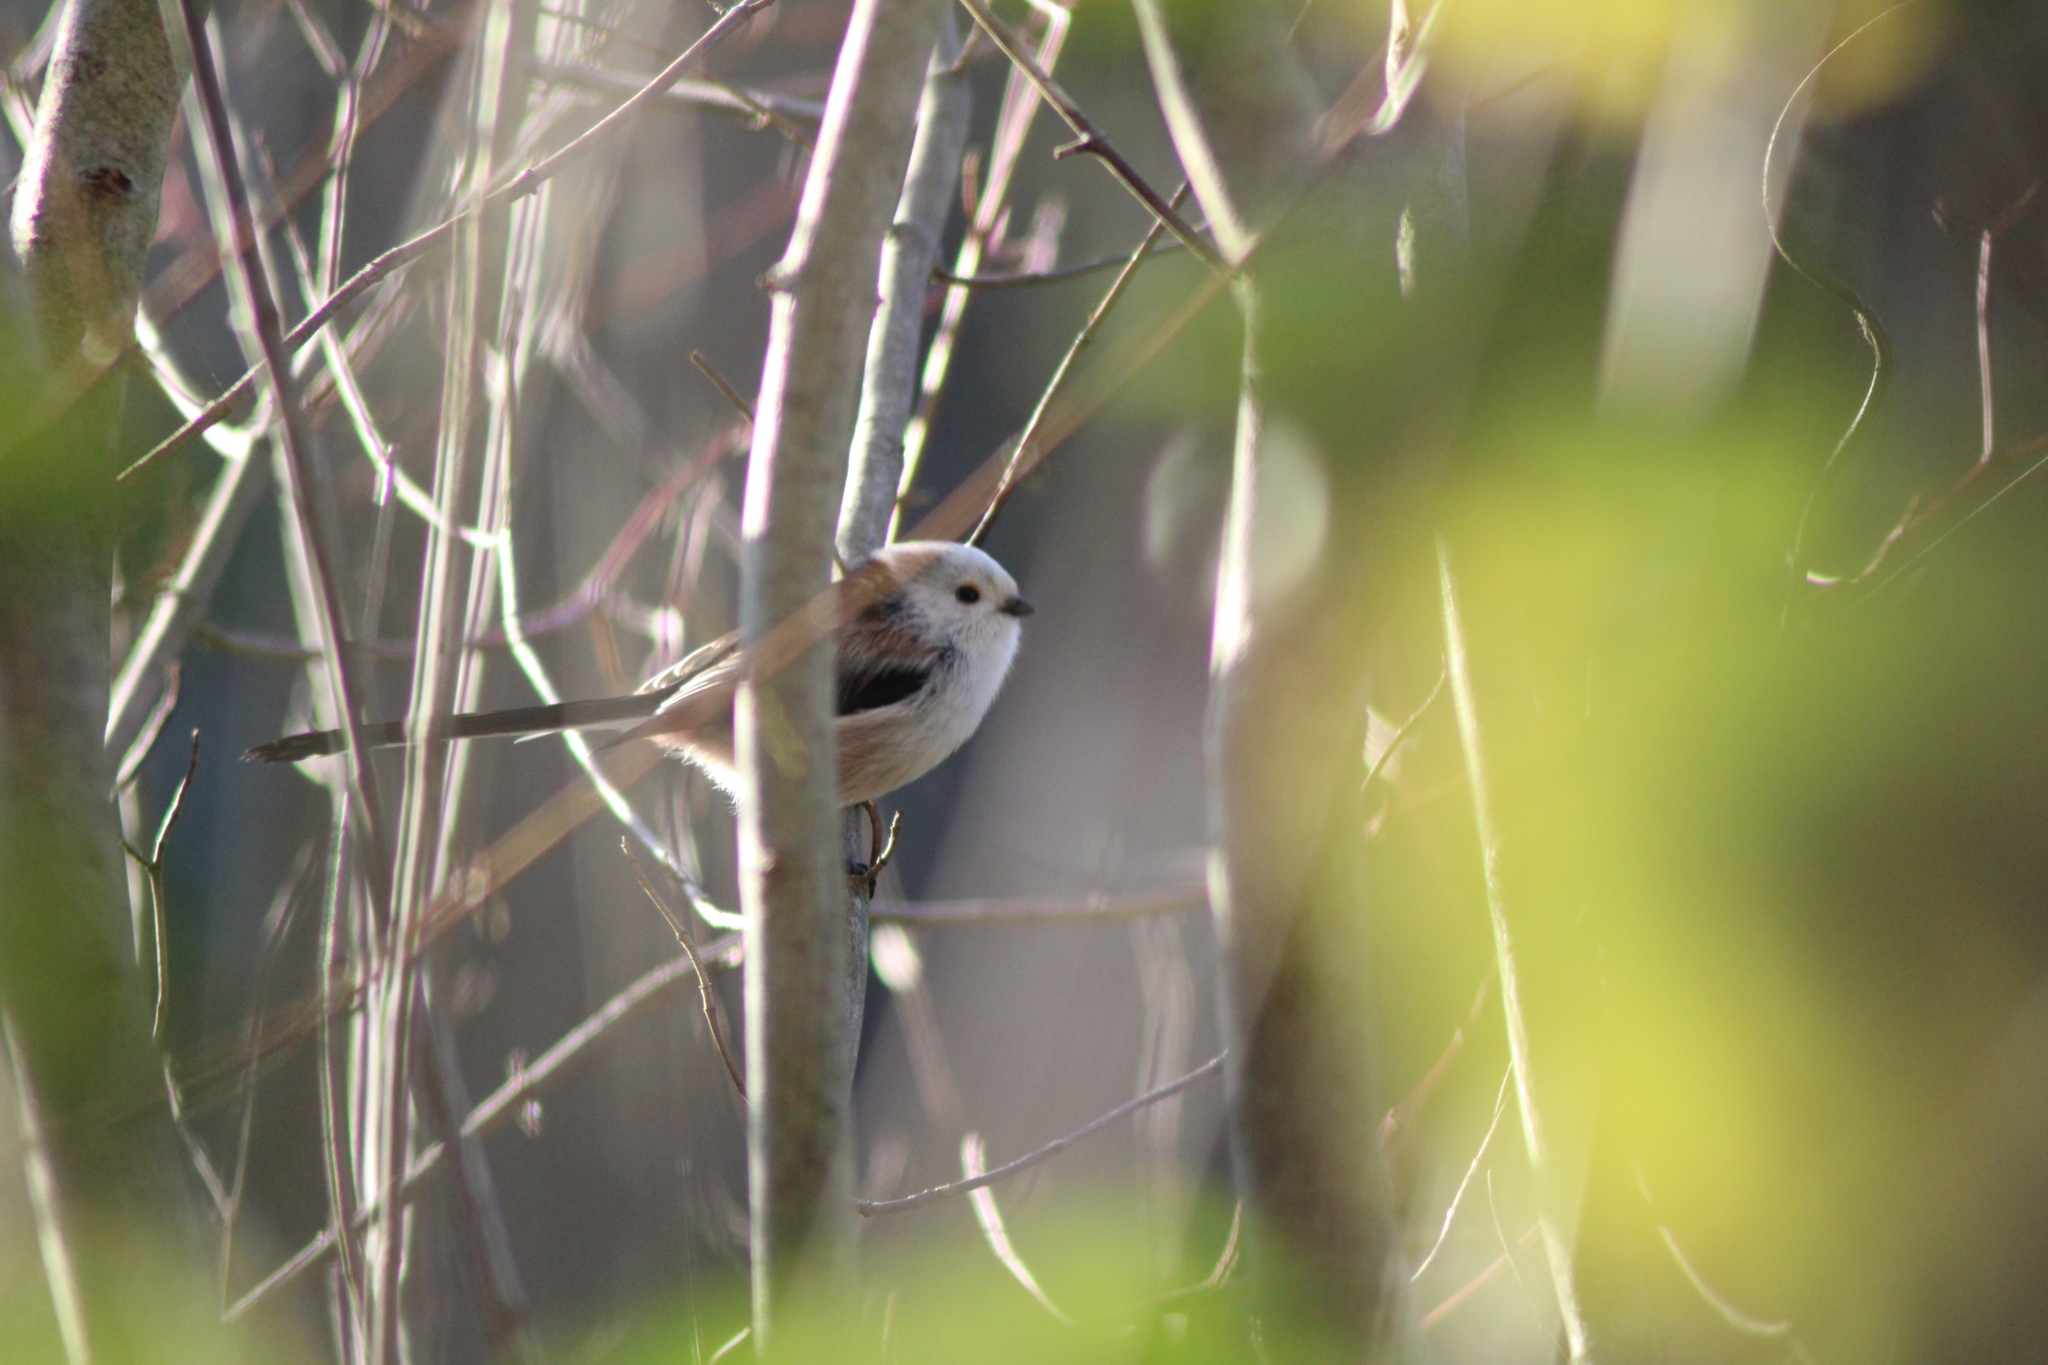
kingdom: Animalia
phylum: Chordata
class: Aves
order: Passeriformes
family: Aegithalidae
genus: Aegithalos
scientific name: Aegithalos caudatus
